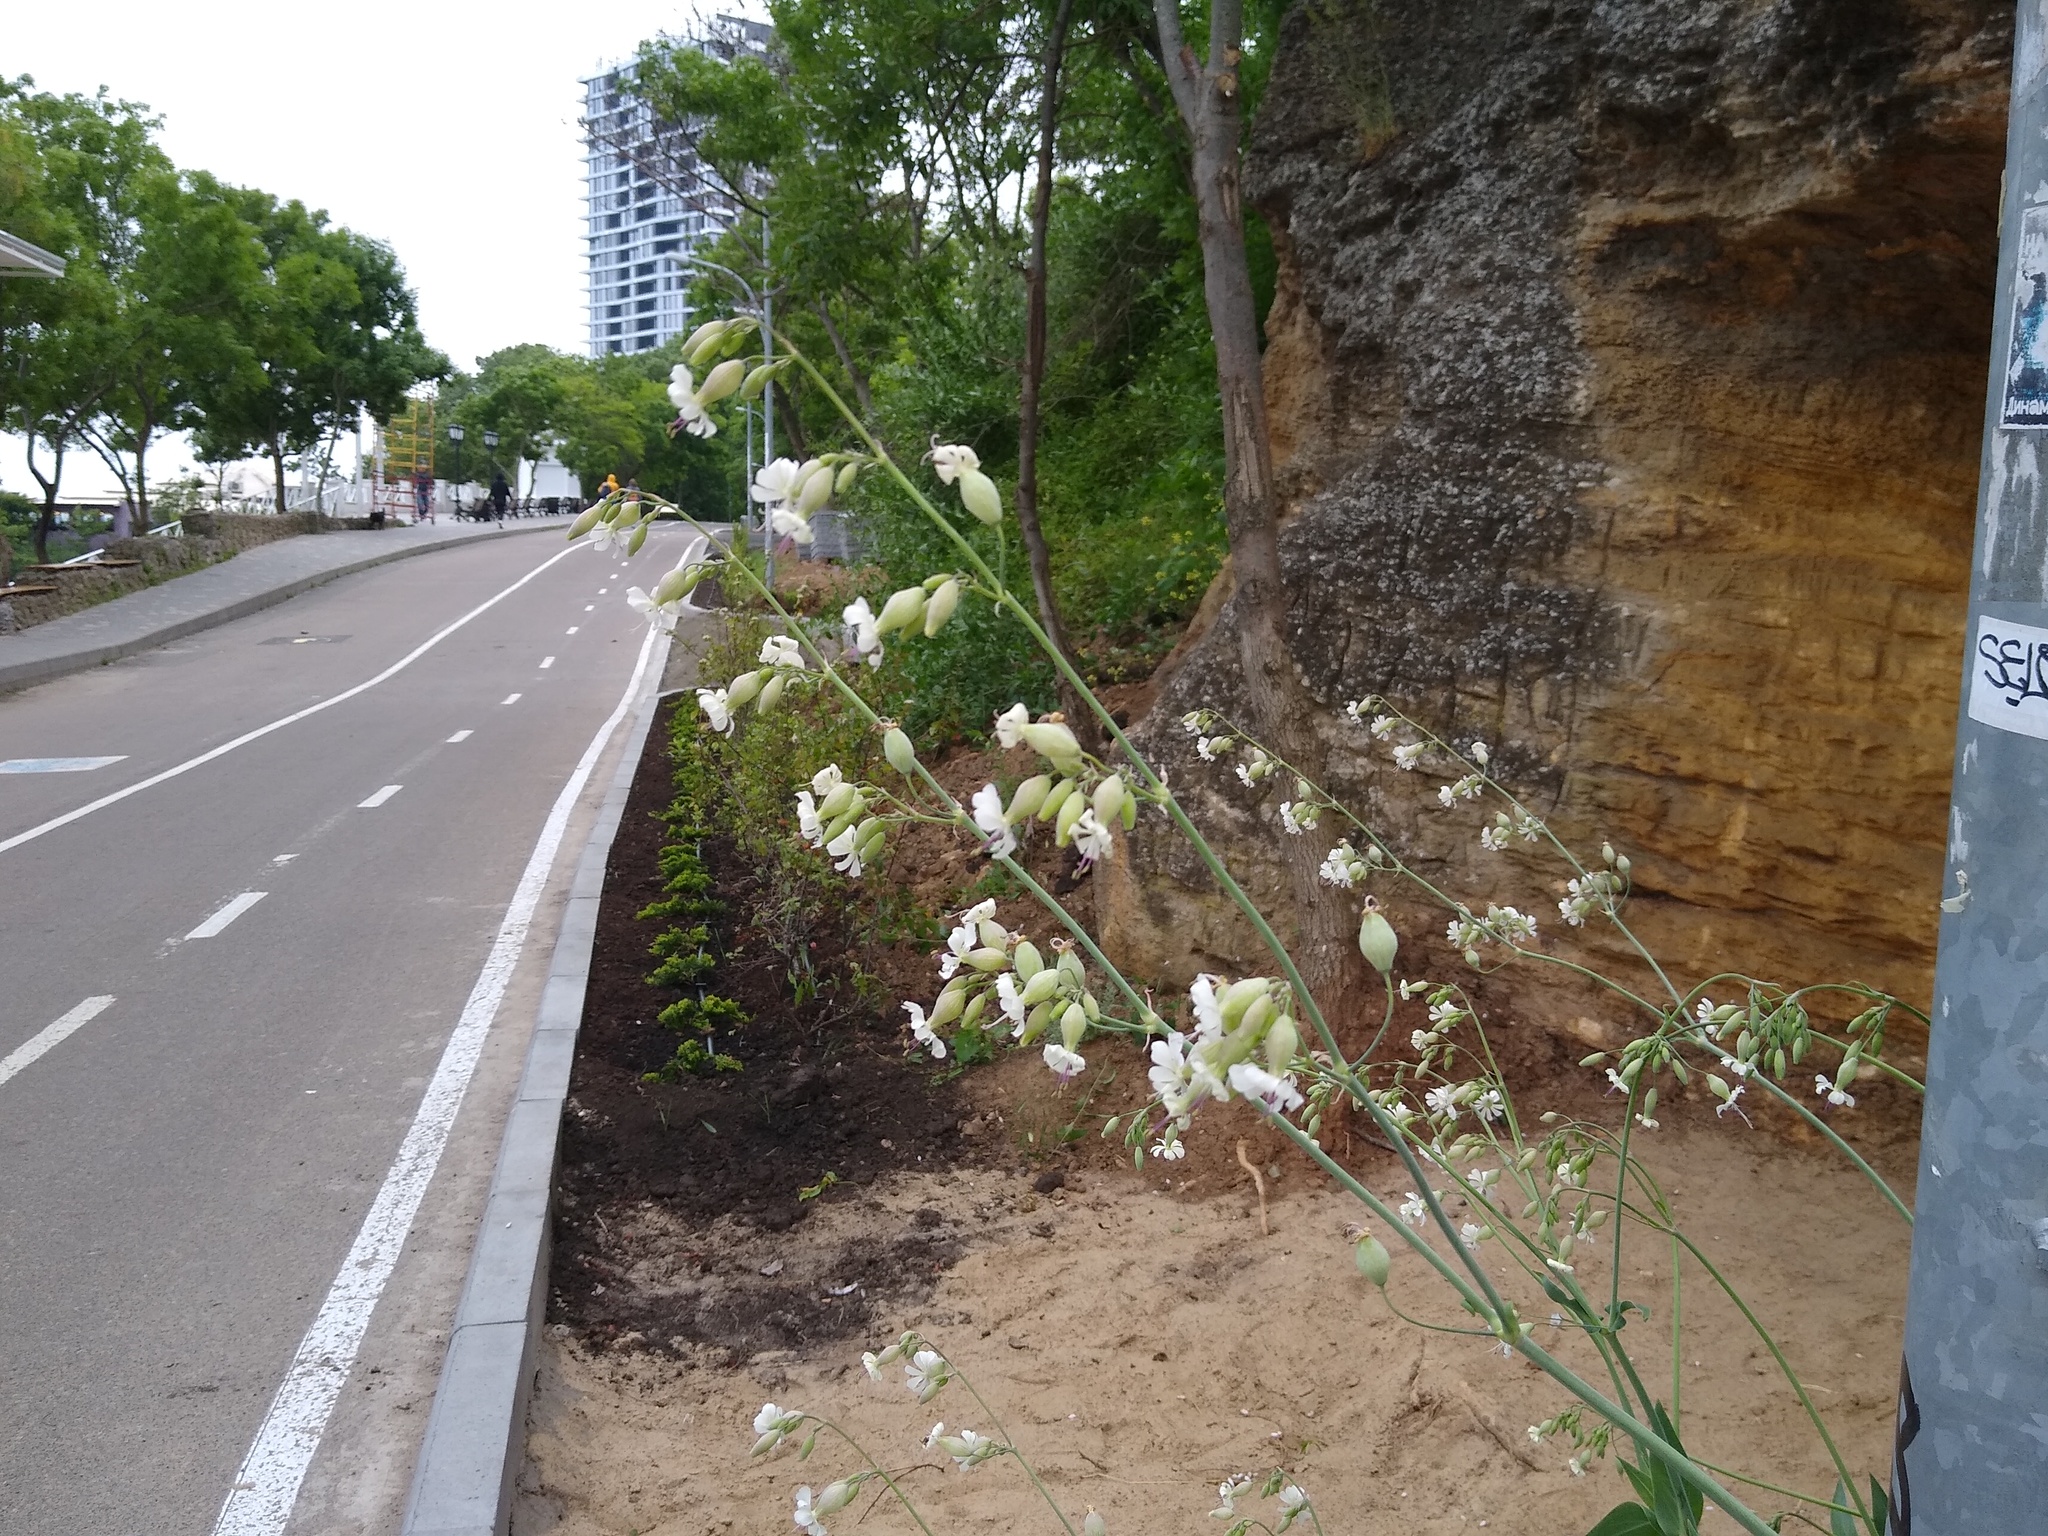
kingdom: Plantae
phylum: Tracheophyta
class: Magnoliopsida
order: Caryophyllales
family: Caryophyllaceae
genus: Silene
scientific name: Silene csereii
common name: Balkan catchfly
